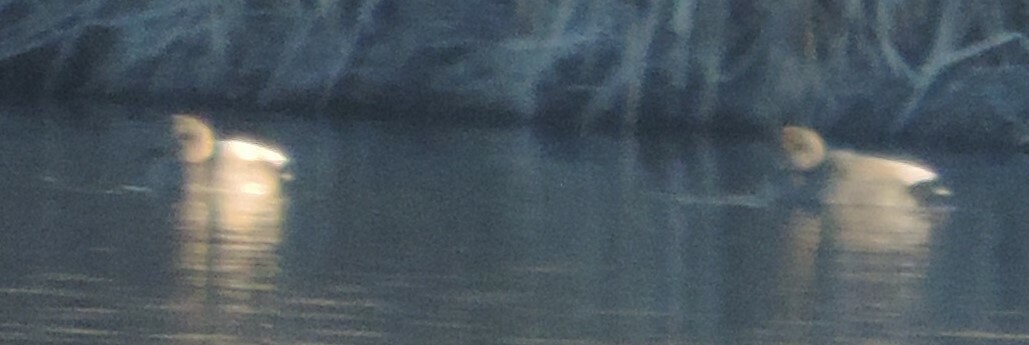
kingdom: Animalia
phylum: Chordata
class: Aves
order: Anseriformes
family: Anatidae
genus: Mareca
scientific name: Mareca strepera
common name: Gadwall
